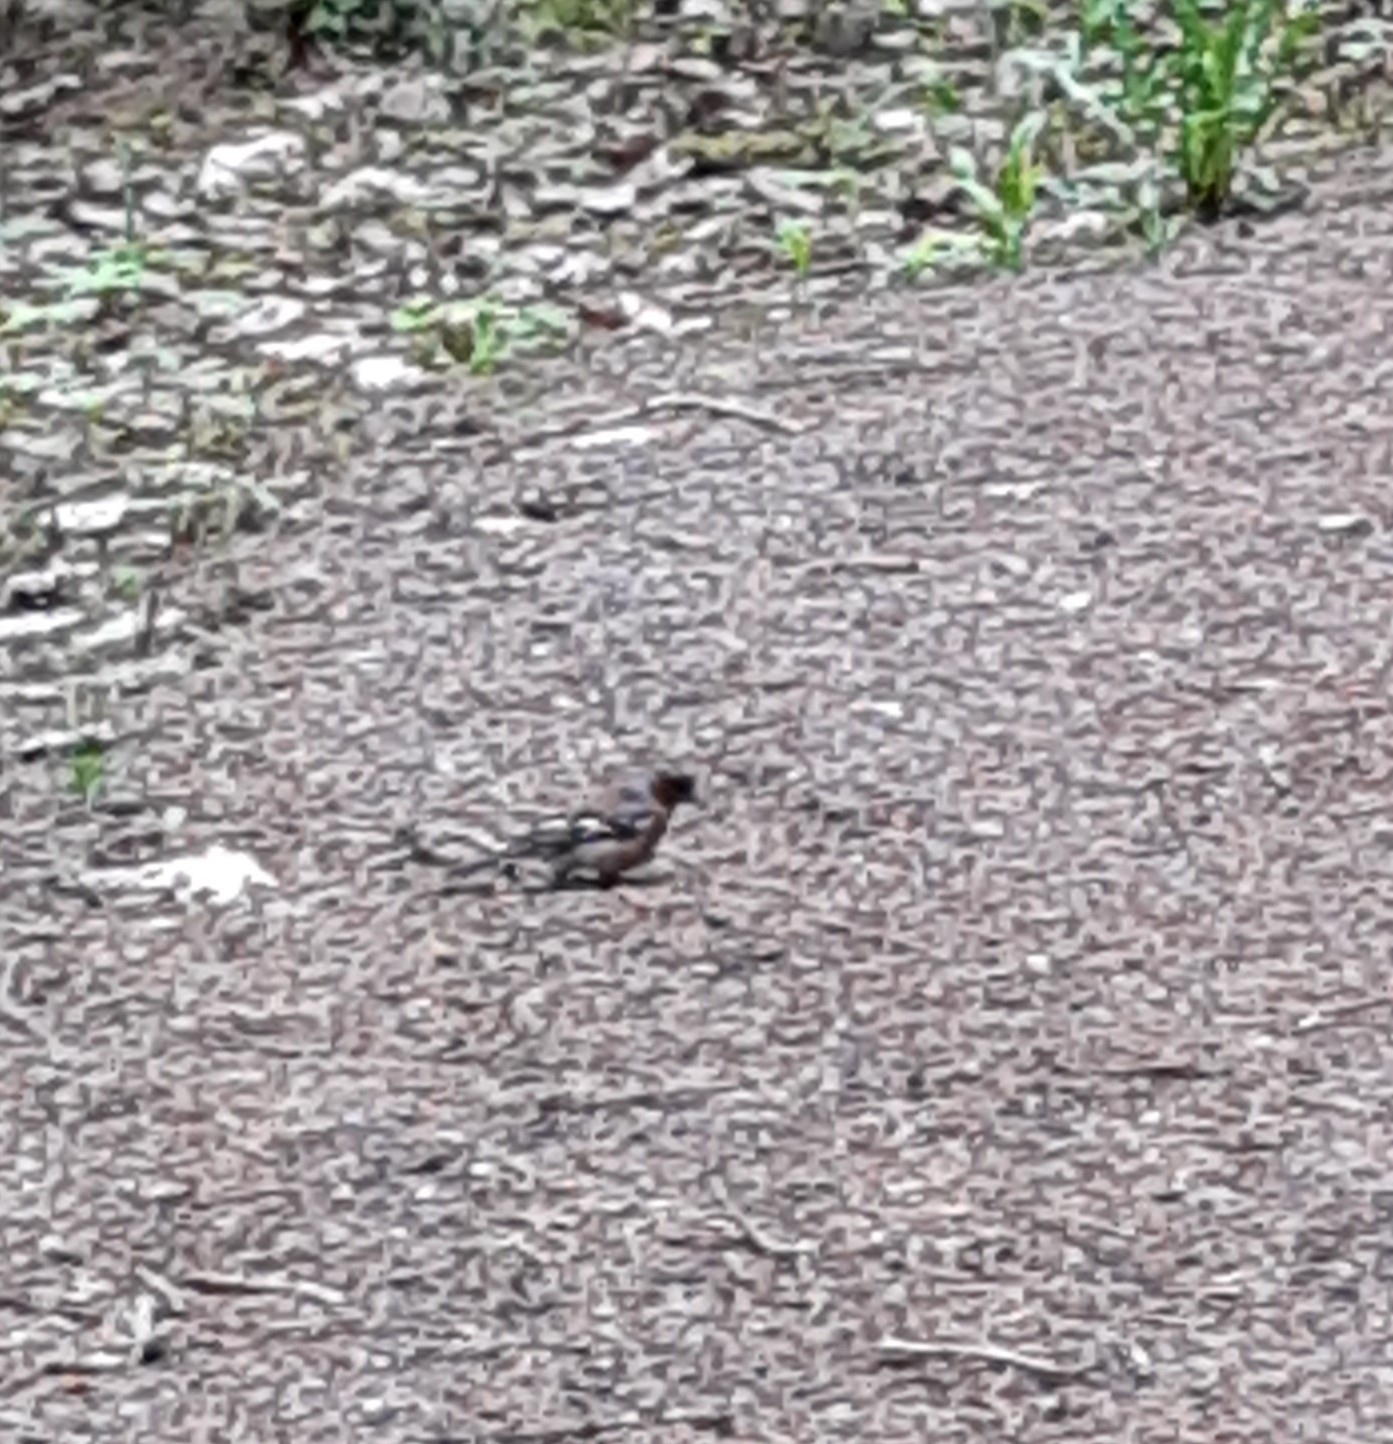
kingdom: Animalia
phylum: Chordata
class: Aves
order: Passeriformes
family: Fringillidae
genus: Fringilla
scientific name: Fringilla coelebs
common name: Common chaffinch
